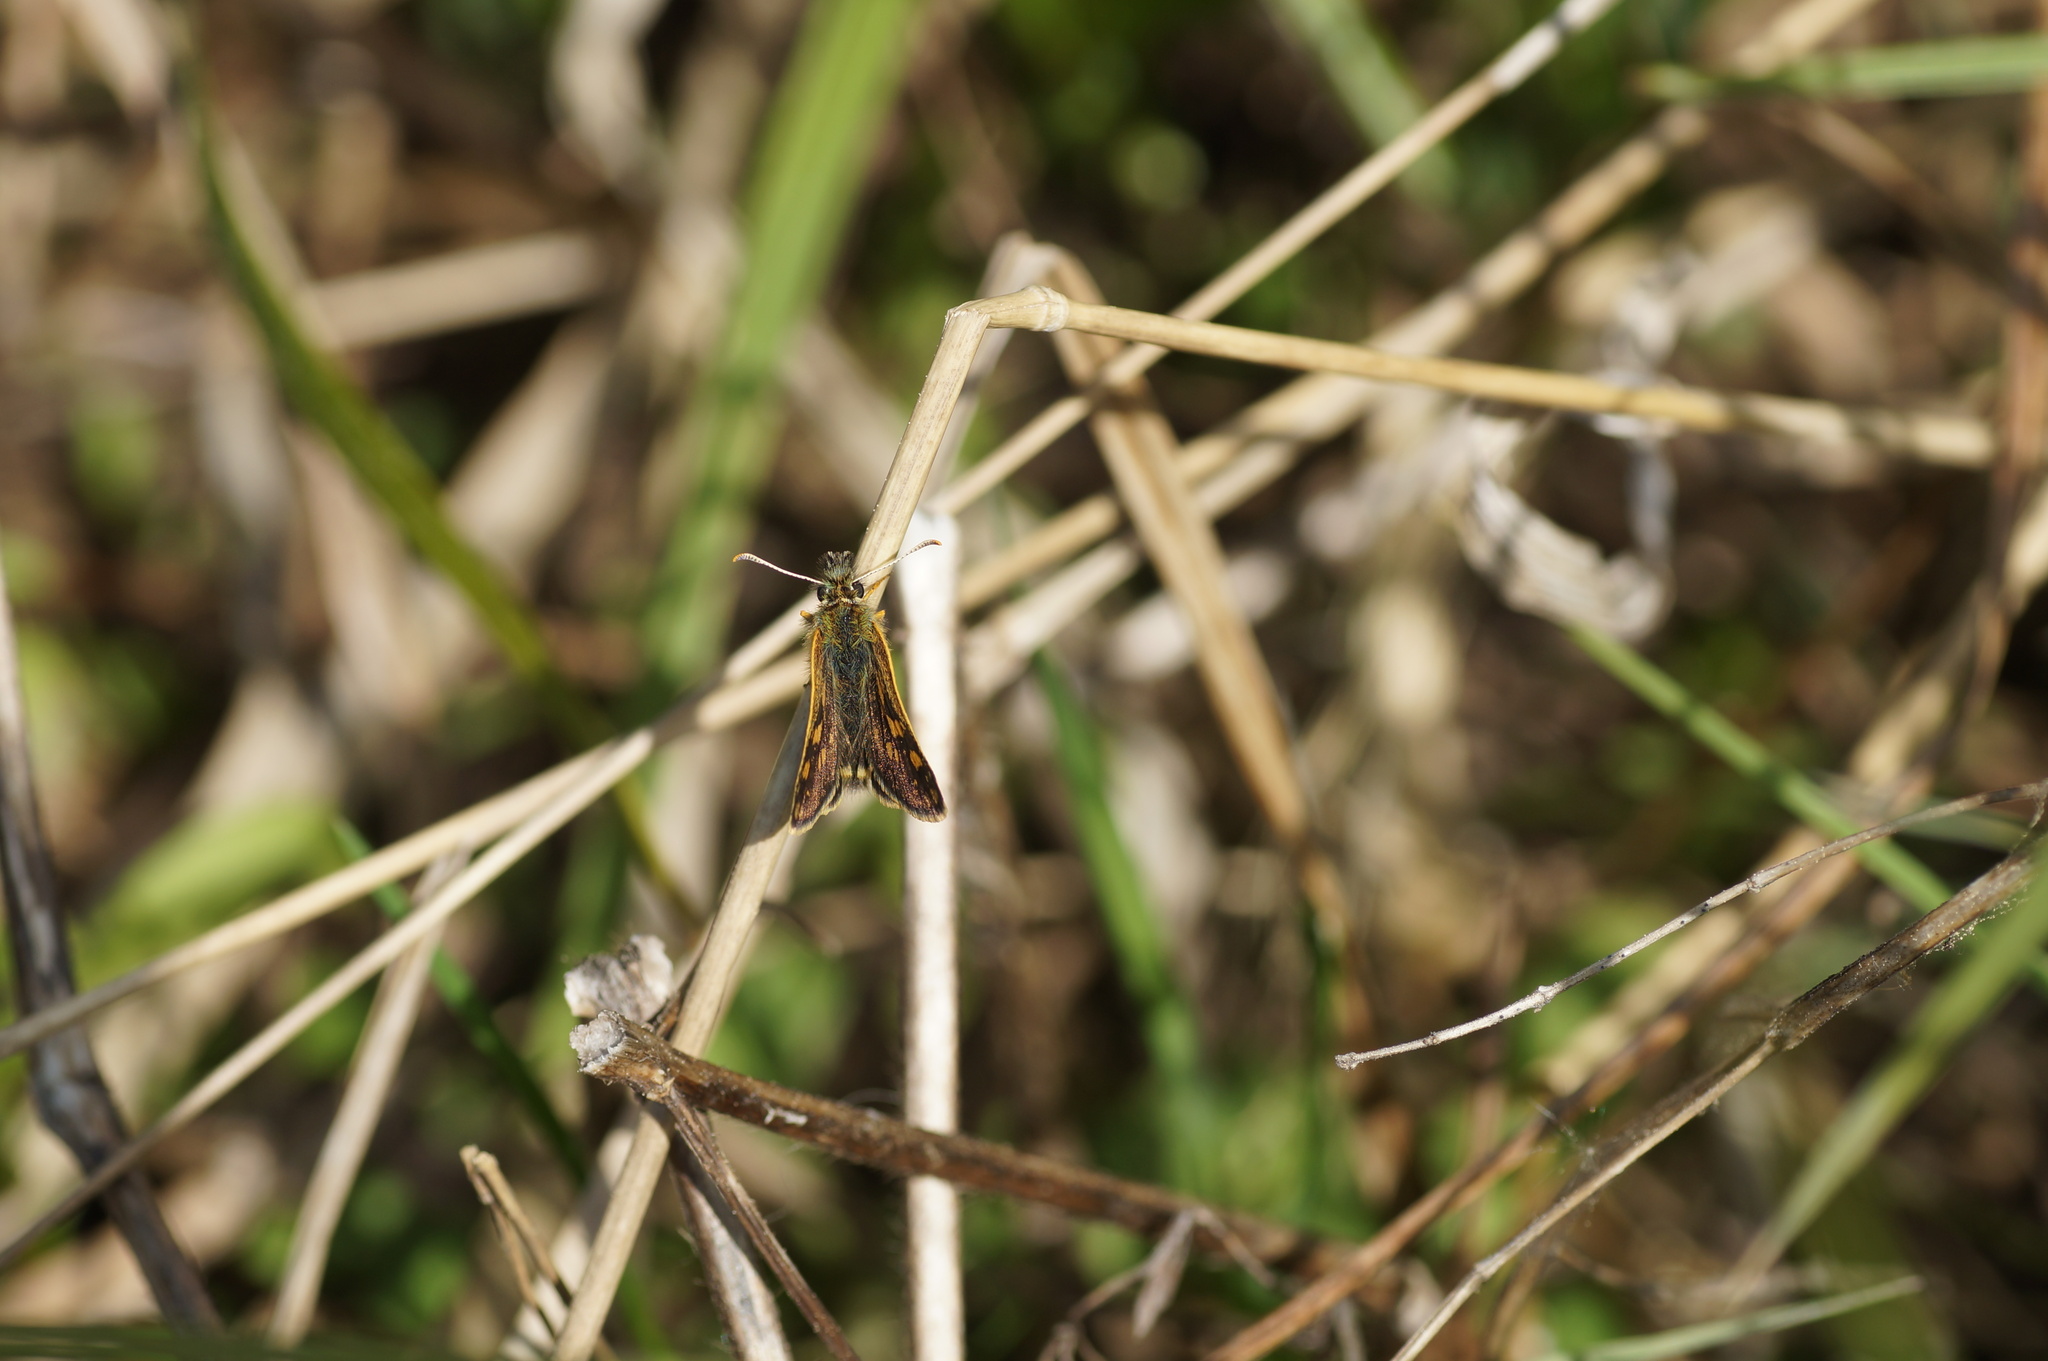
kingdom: Animalia
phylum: Arthropoda
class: Insecta
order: Lepidoptera
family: Hesperiidae
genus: Carterocephalus
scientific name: Carterocephalus palaemon
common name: Chequered skipper
